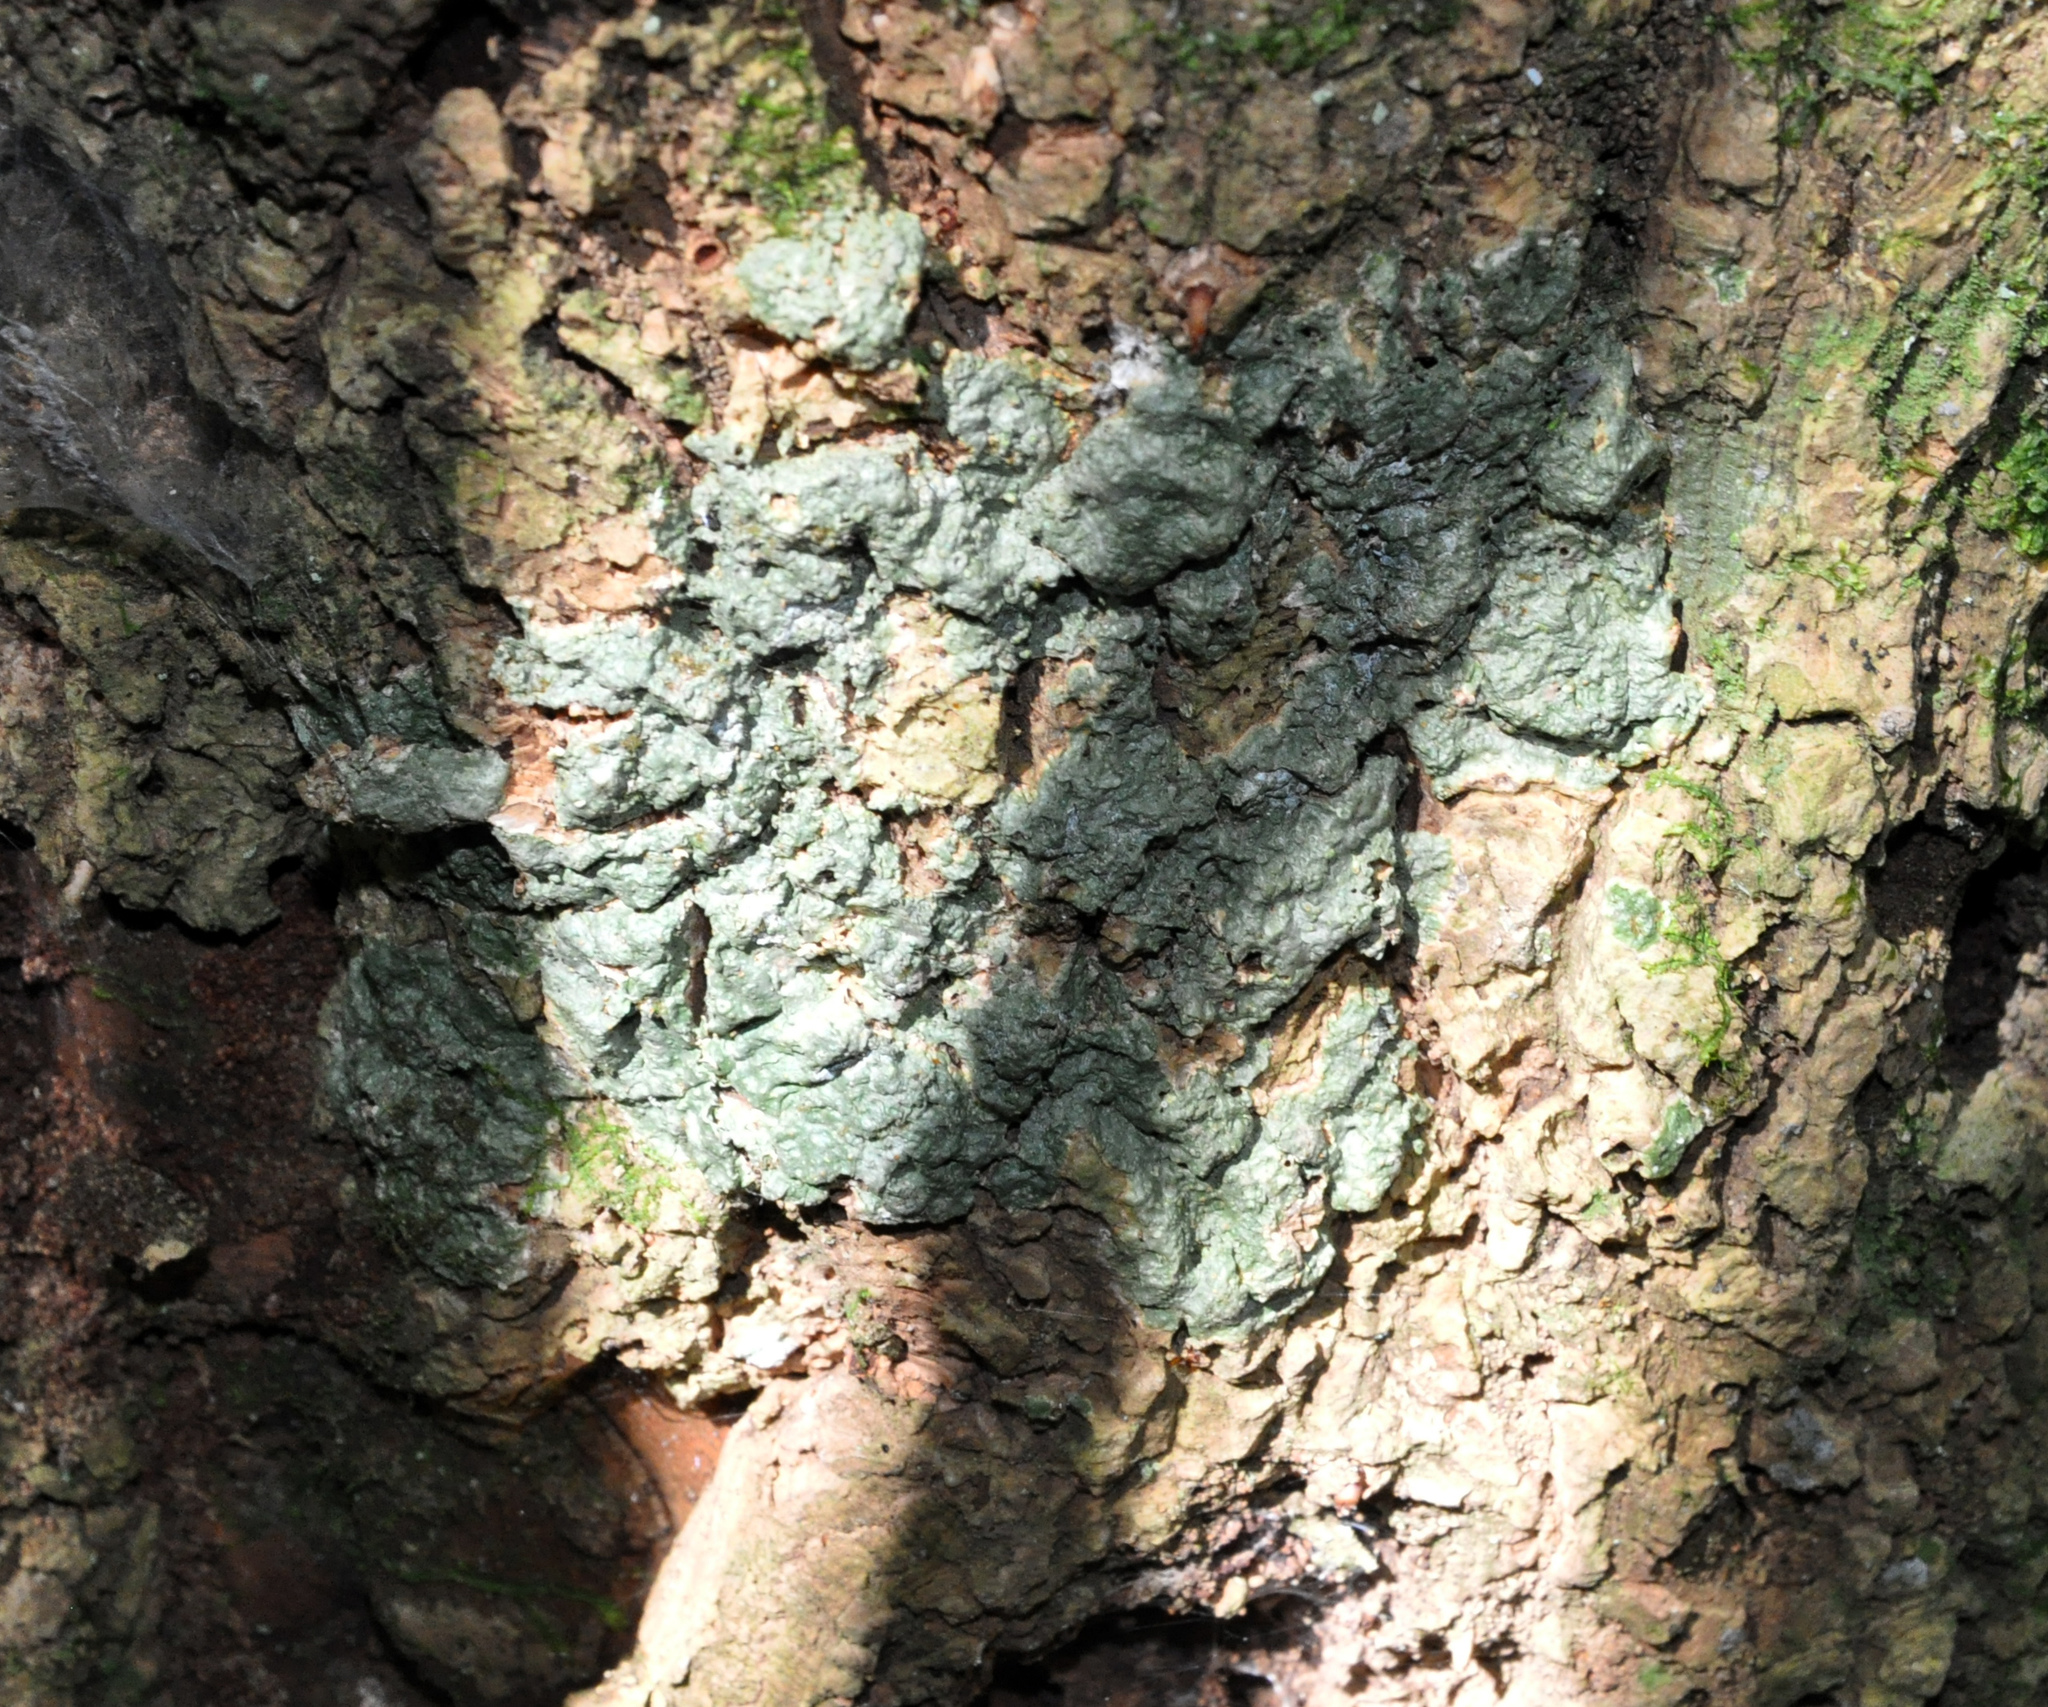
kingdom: Fungi
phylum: Ascomycota
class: Lecanoromycetes
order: Pertusariales
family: Pertusariaceae
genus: Porina
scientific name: Porina exocha
